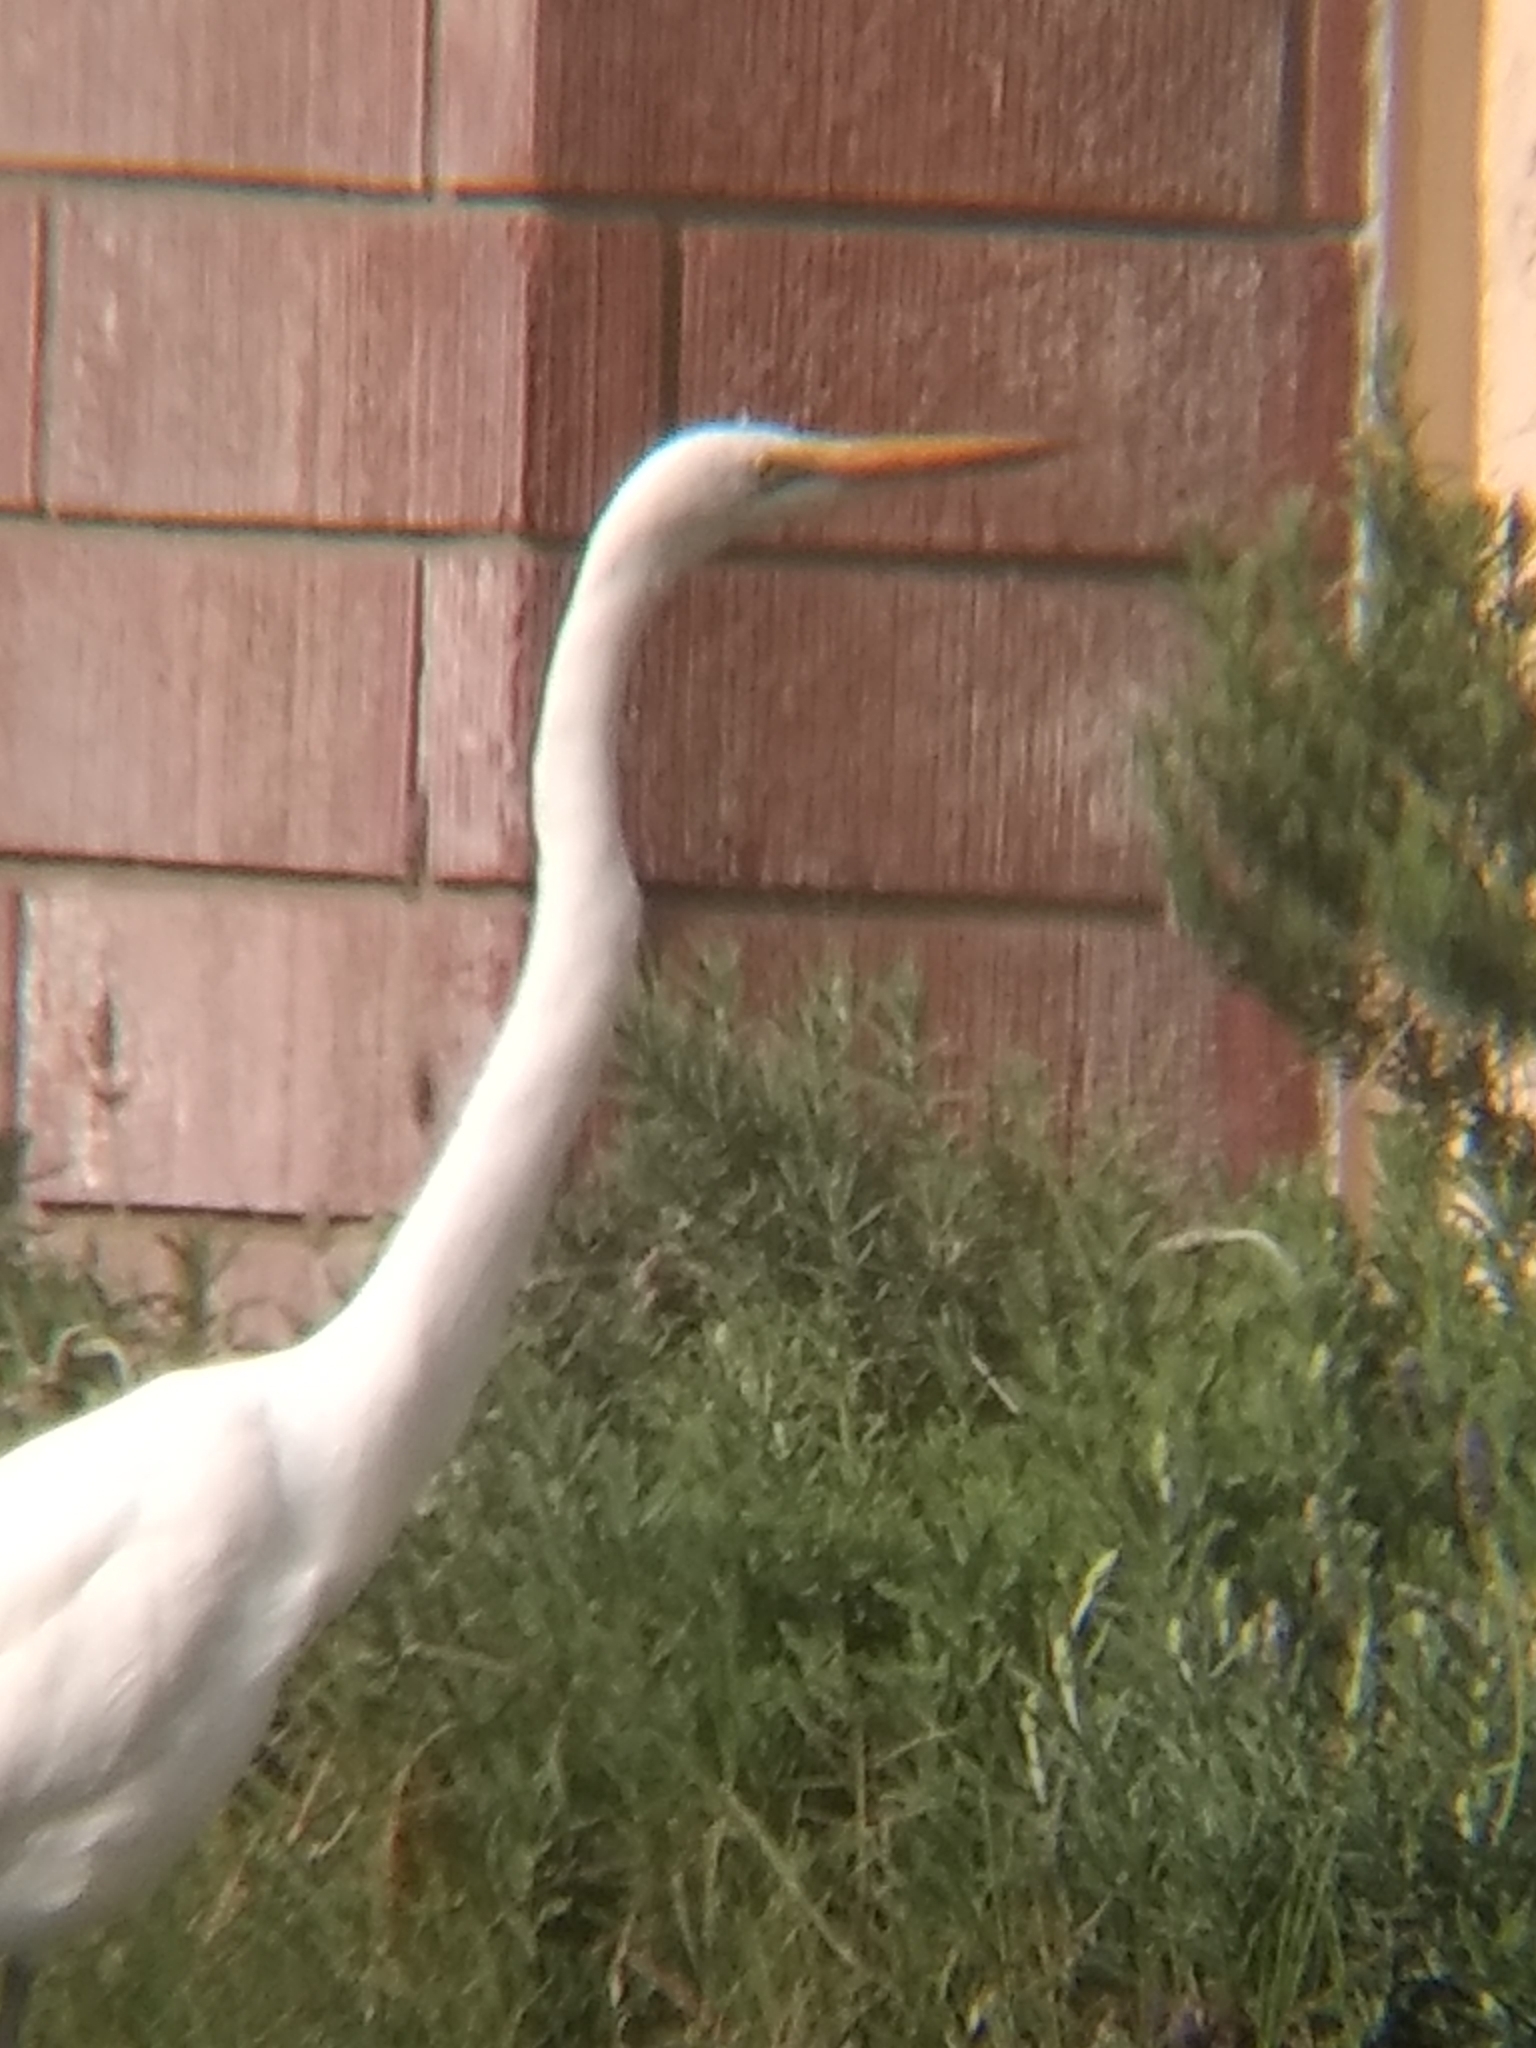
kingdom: Animalia
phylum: Chordata
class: Aves
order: Pelecaniformes
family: Ardeidae
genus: Ardea
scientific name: Ardea alba
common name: Great egret
